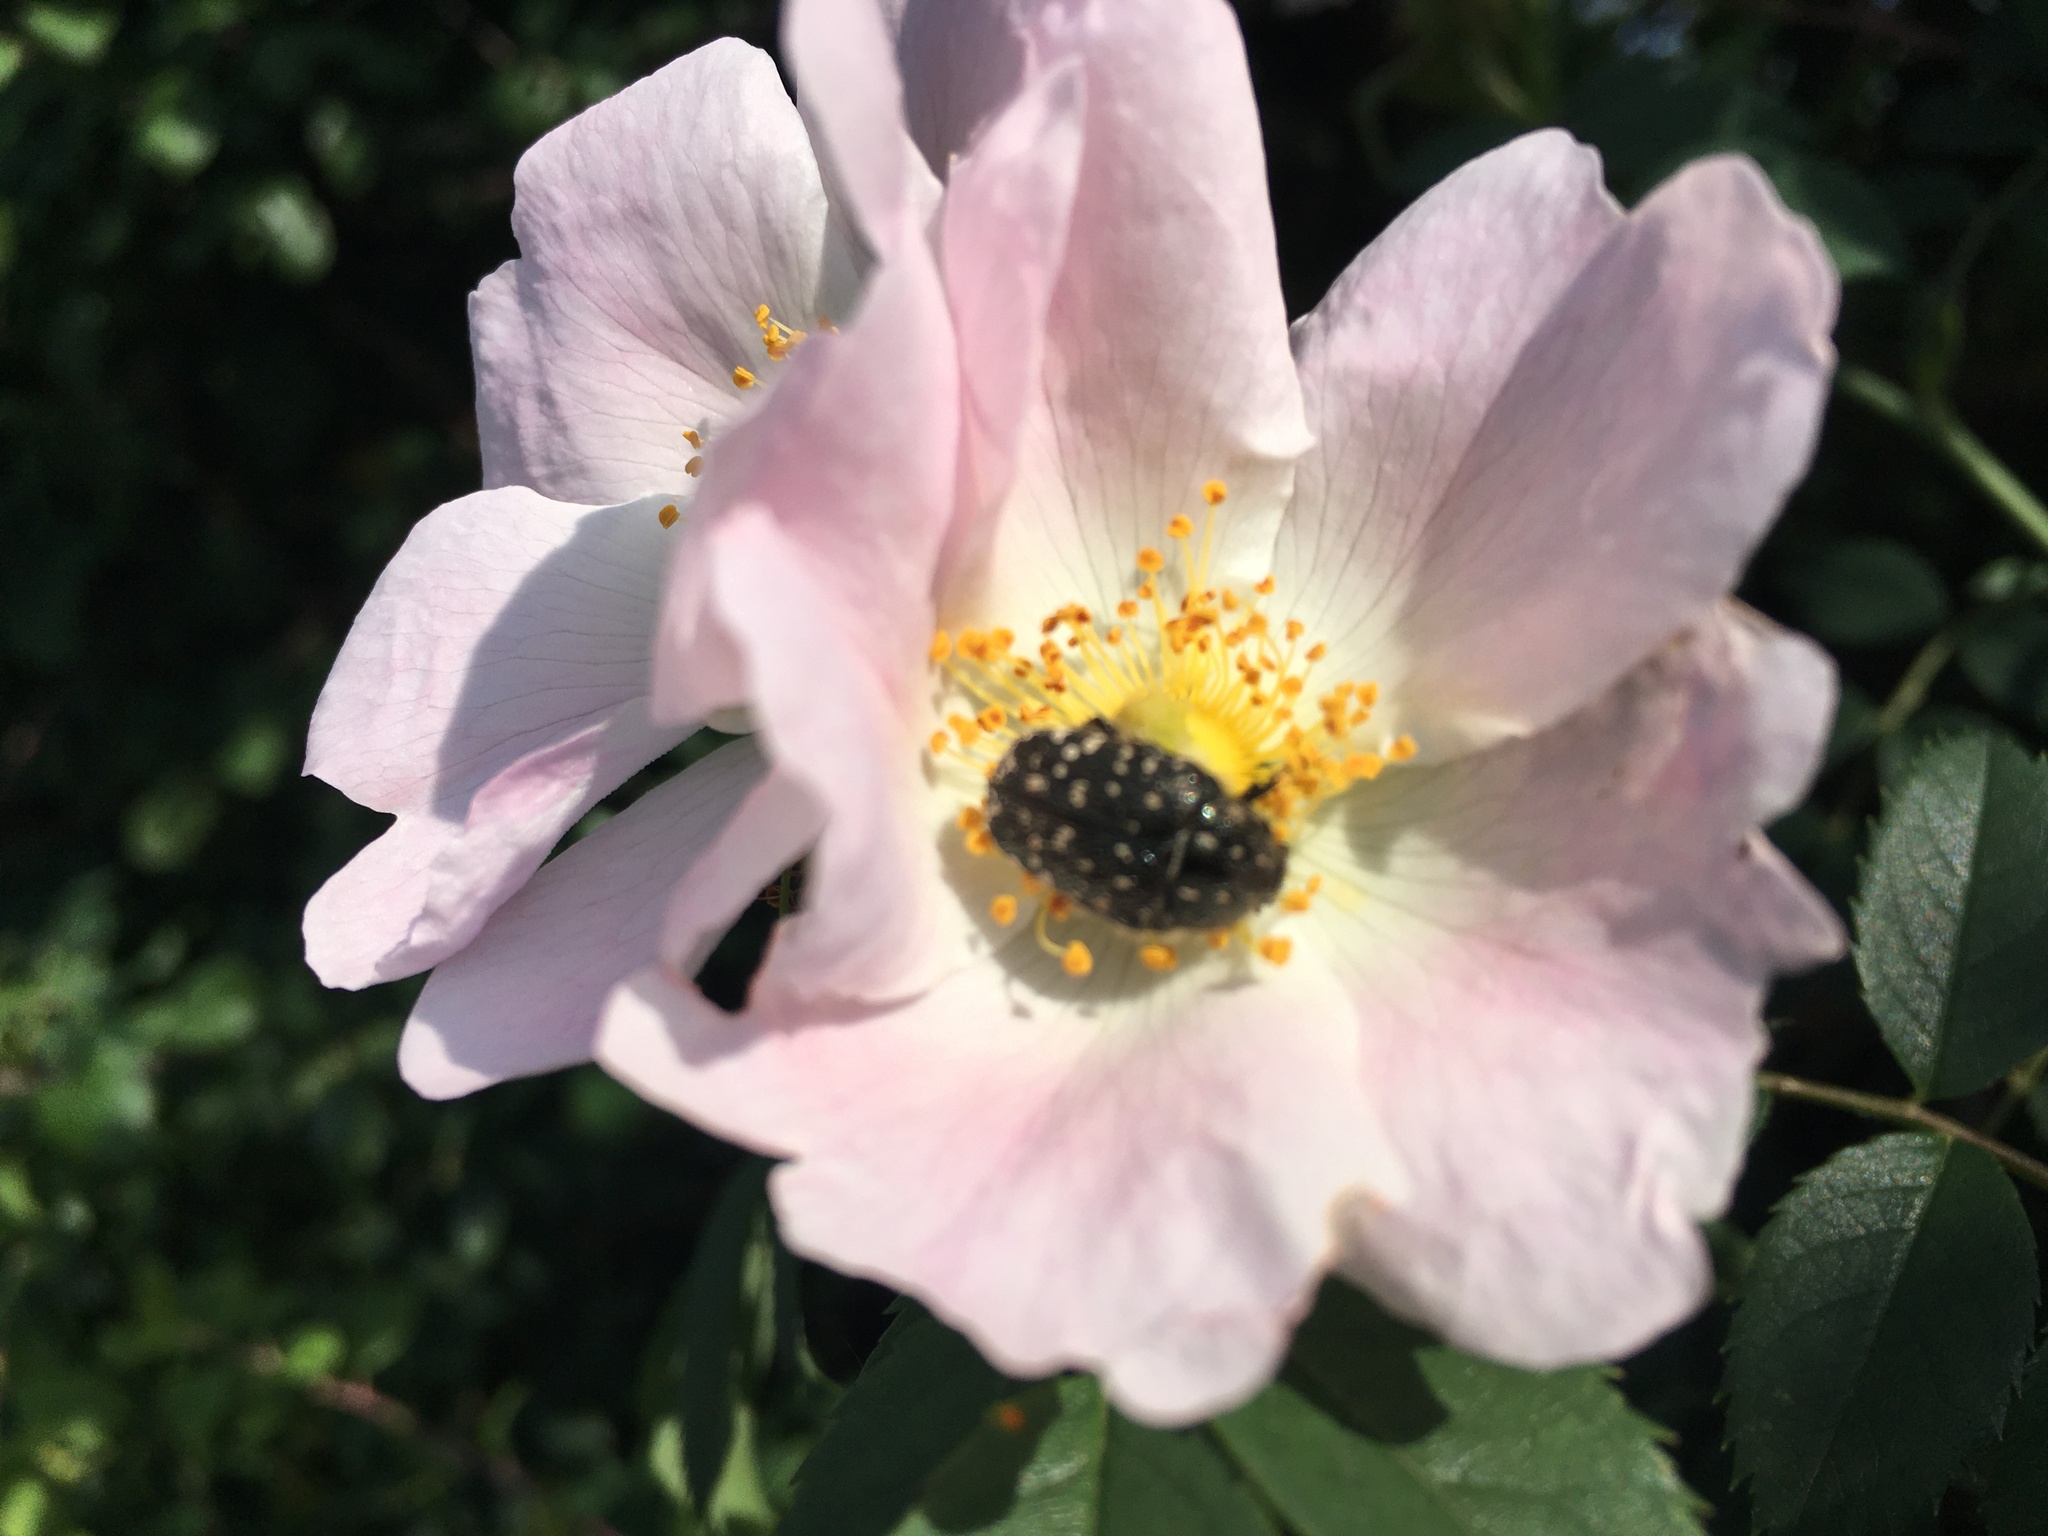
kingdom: Animalia
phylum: Arthropoda
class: Insecta
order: Coleoptera
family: Scarabaeidae
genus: Oxythyrea
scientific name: Oxythyrea funesta
